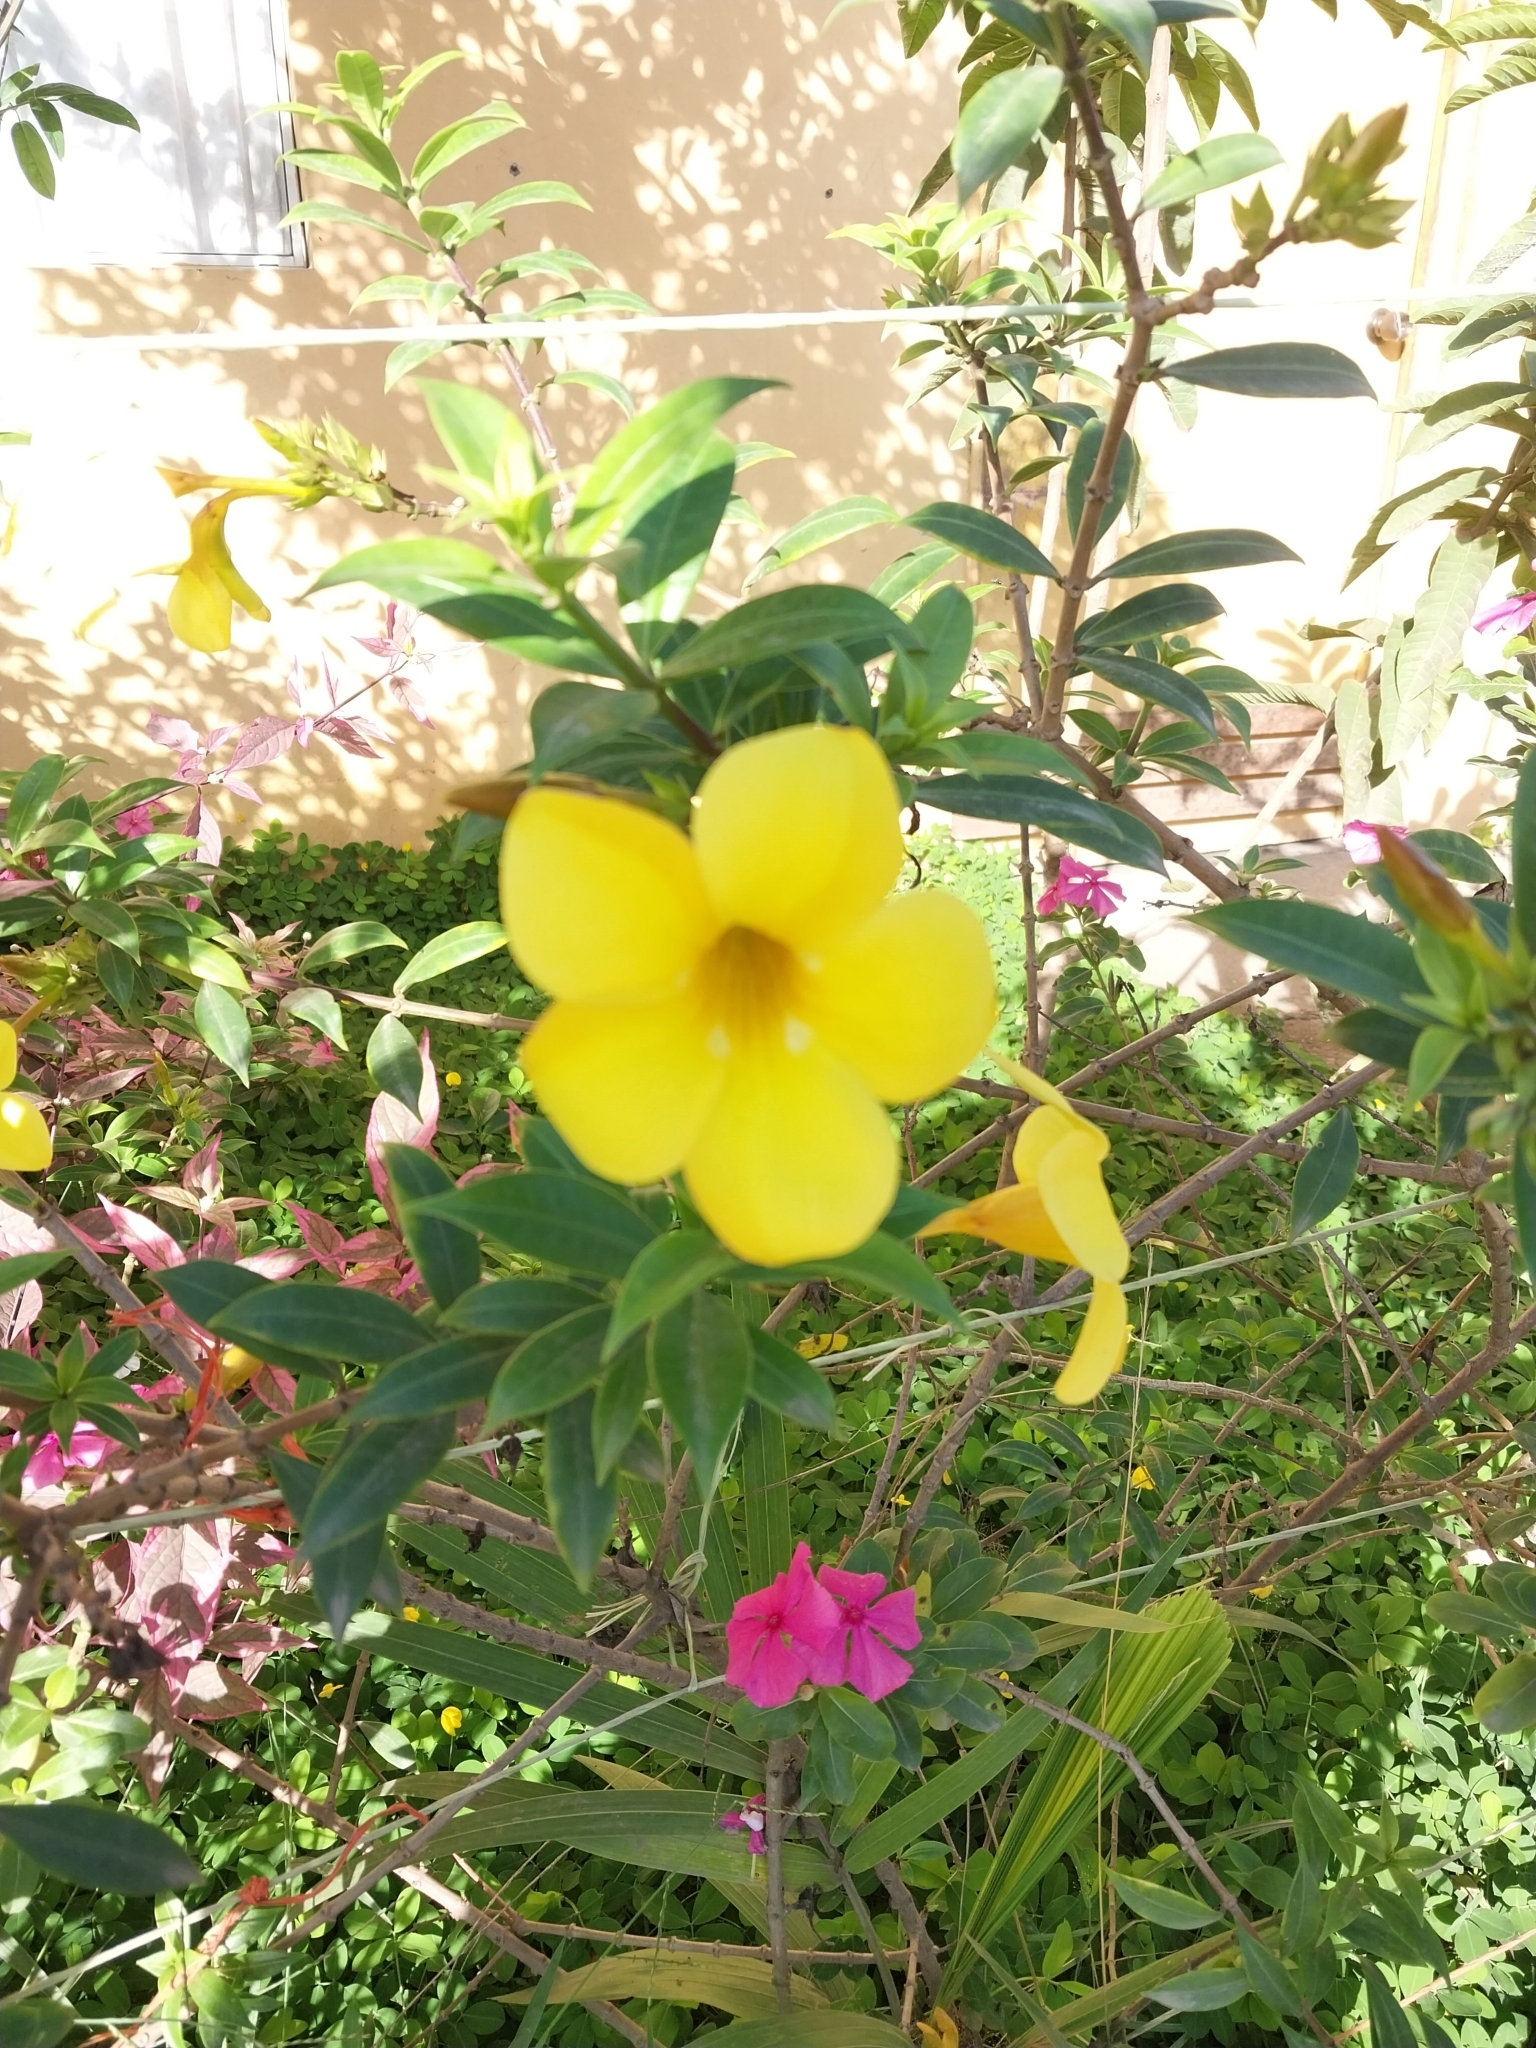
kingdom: Plantae
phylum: Tracheophyta
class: Magnoliopsida
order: Gentianales
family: Apocynaceae
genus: Allamanda
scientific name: Allamanda cathartica
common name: Golden trumpet
